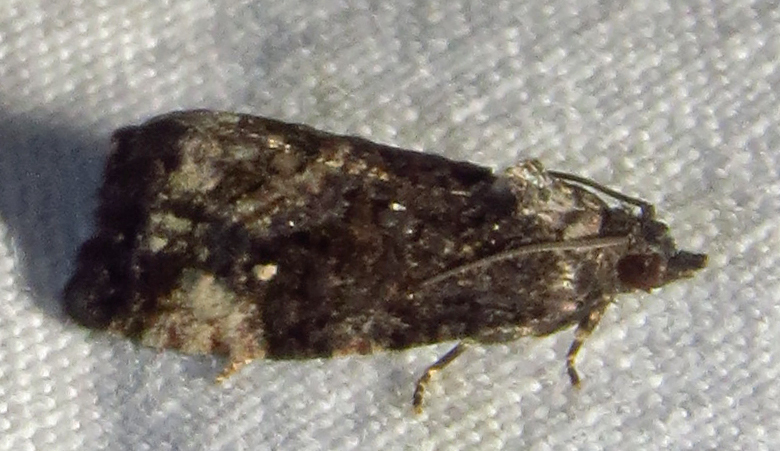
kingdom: Animalia
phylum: Arthropoda
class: Insecta
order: Lepidoptera
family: Tortricidae
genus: Gymnandrosoma
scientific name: Gymnandrosoma punctidiscanum
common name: Dotted ecdytolopha moth
